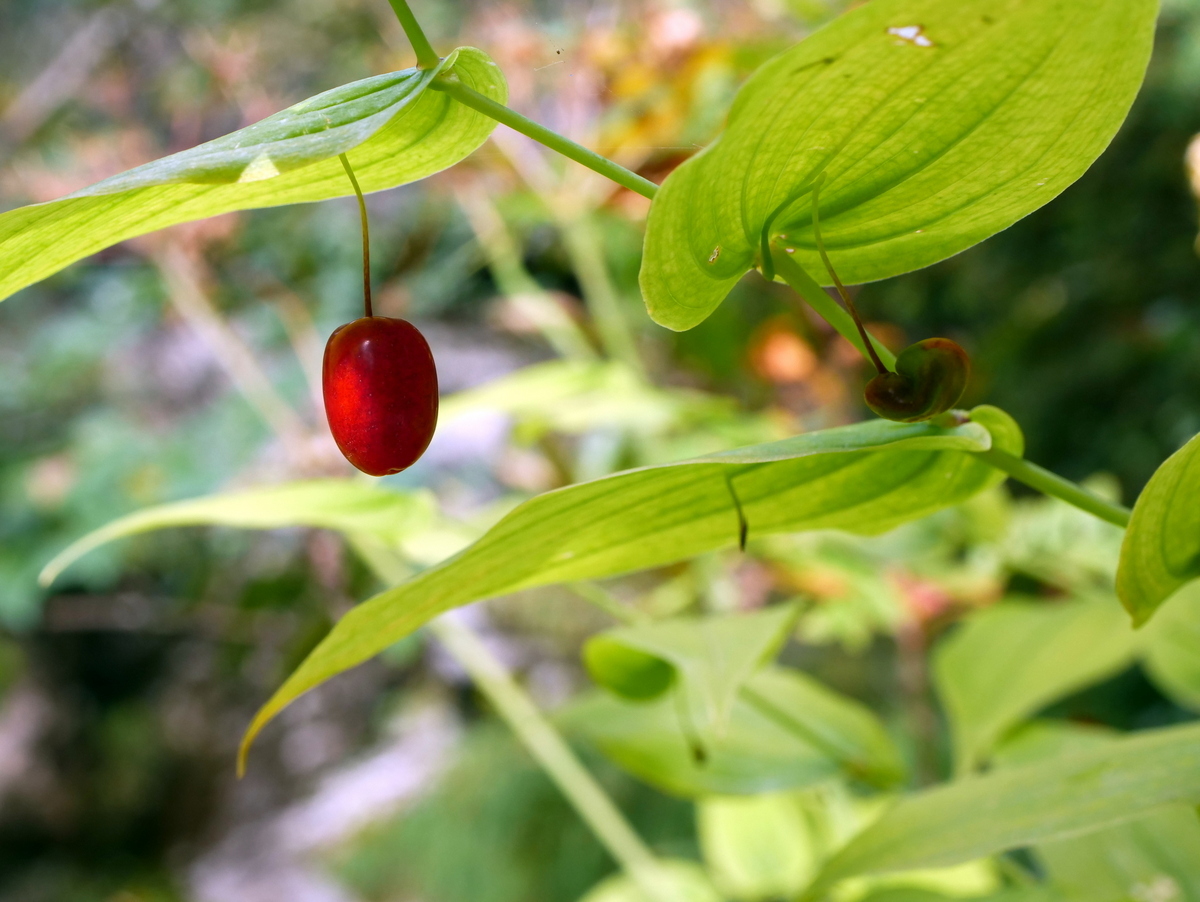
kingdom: Plantae
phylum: Tracheophyta
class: Liliopsida
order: Liliales
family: Liliaceae
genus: Streptopus
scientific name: Streptopus amplexifolius
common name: Clasp twisted stalk
